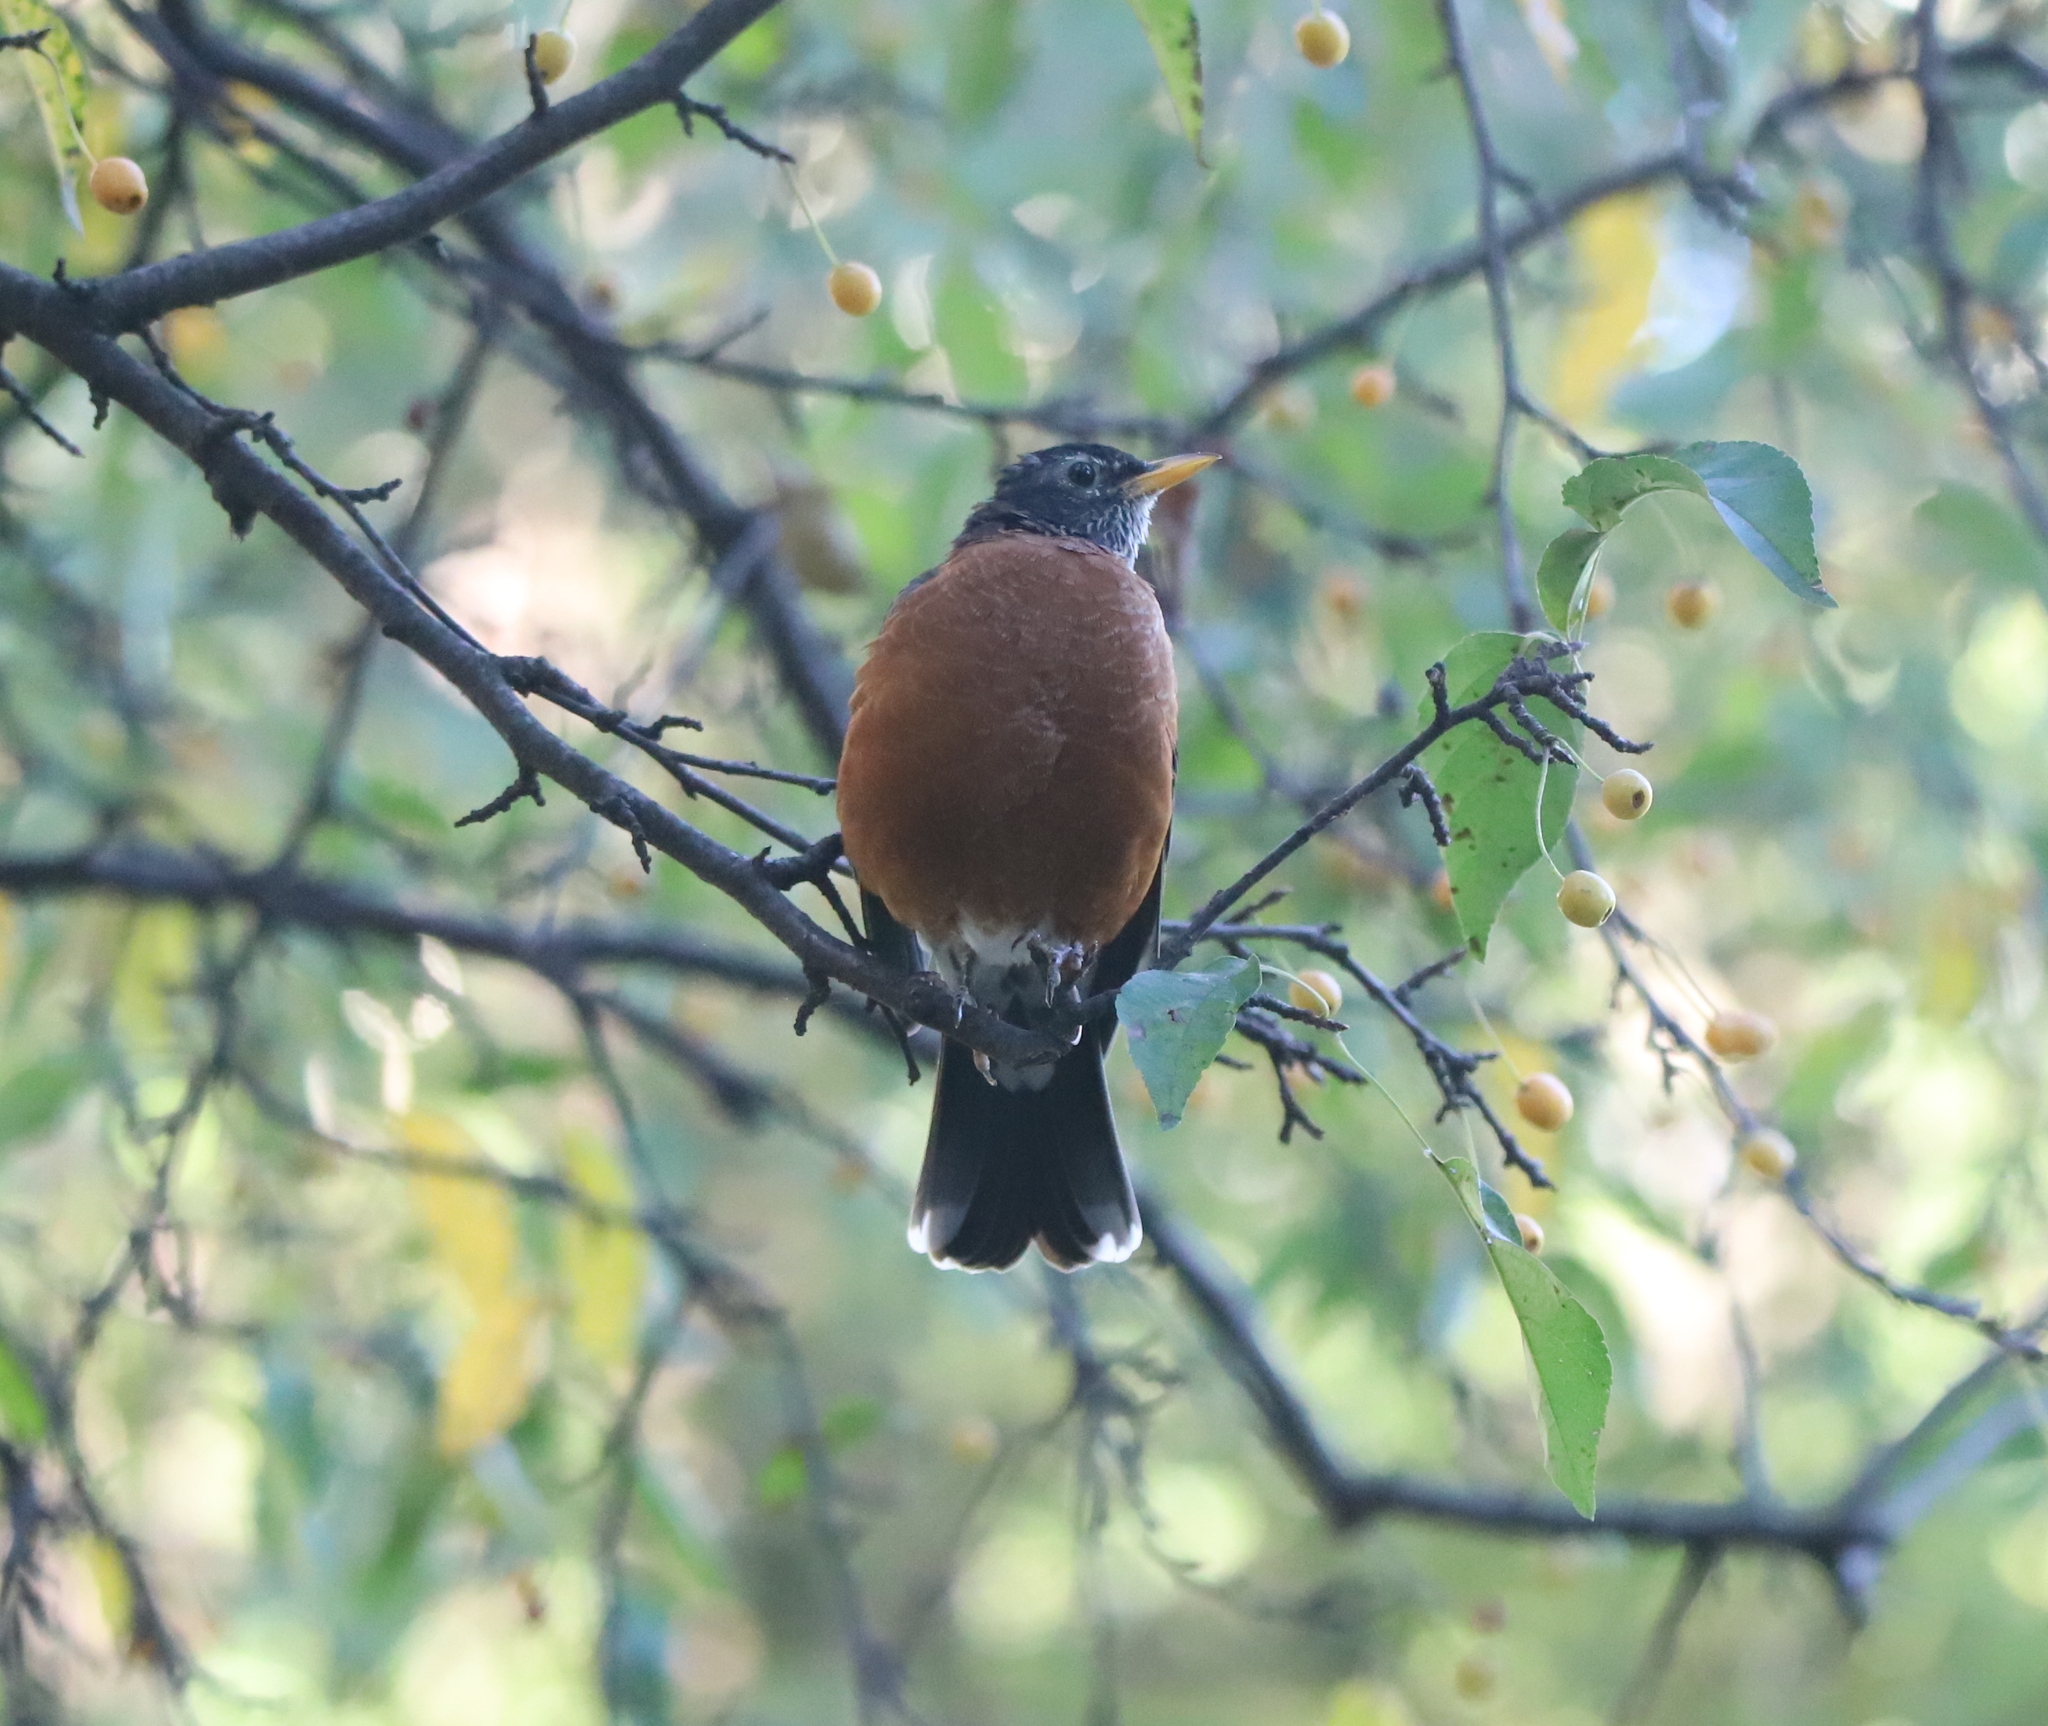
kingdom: Animalia
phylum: Chordata
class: Aves
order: Passeriformes
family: Turdidae
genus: Turdus
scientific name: Turdus migratorius
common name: American robin
